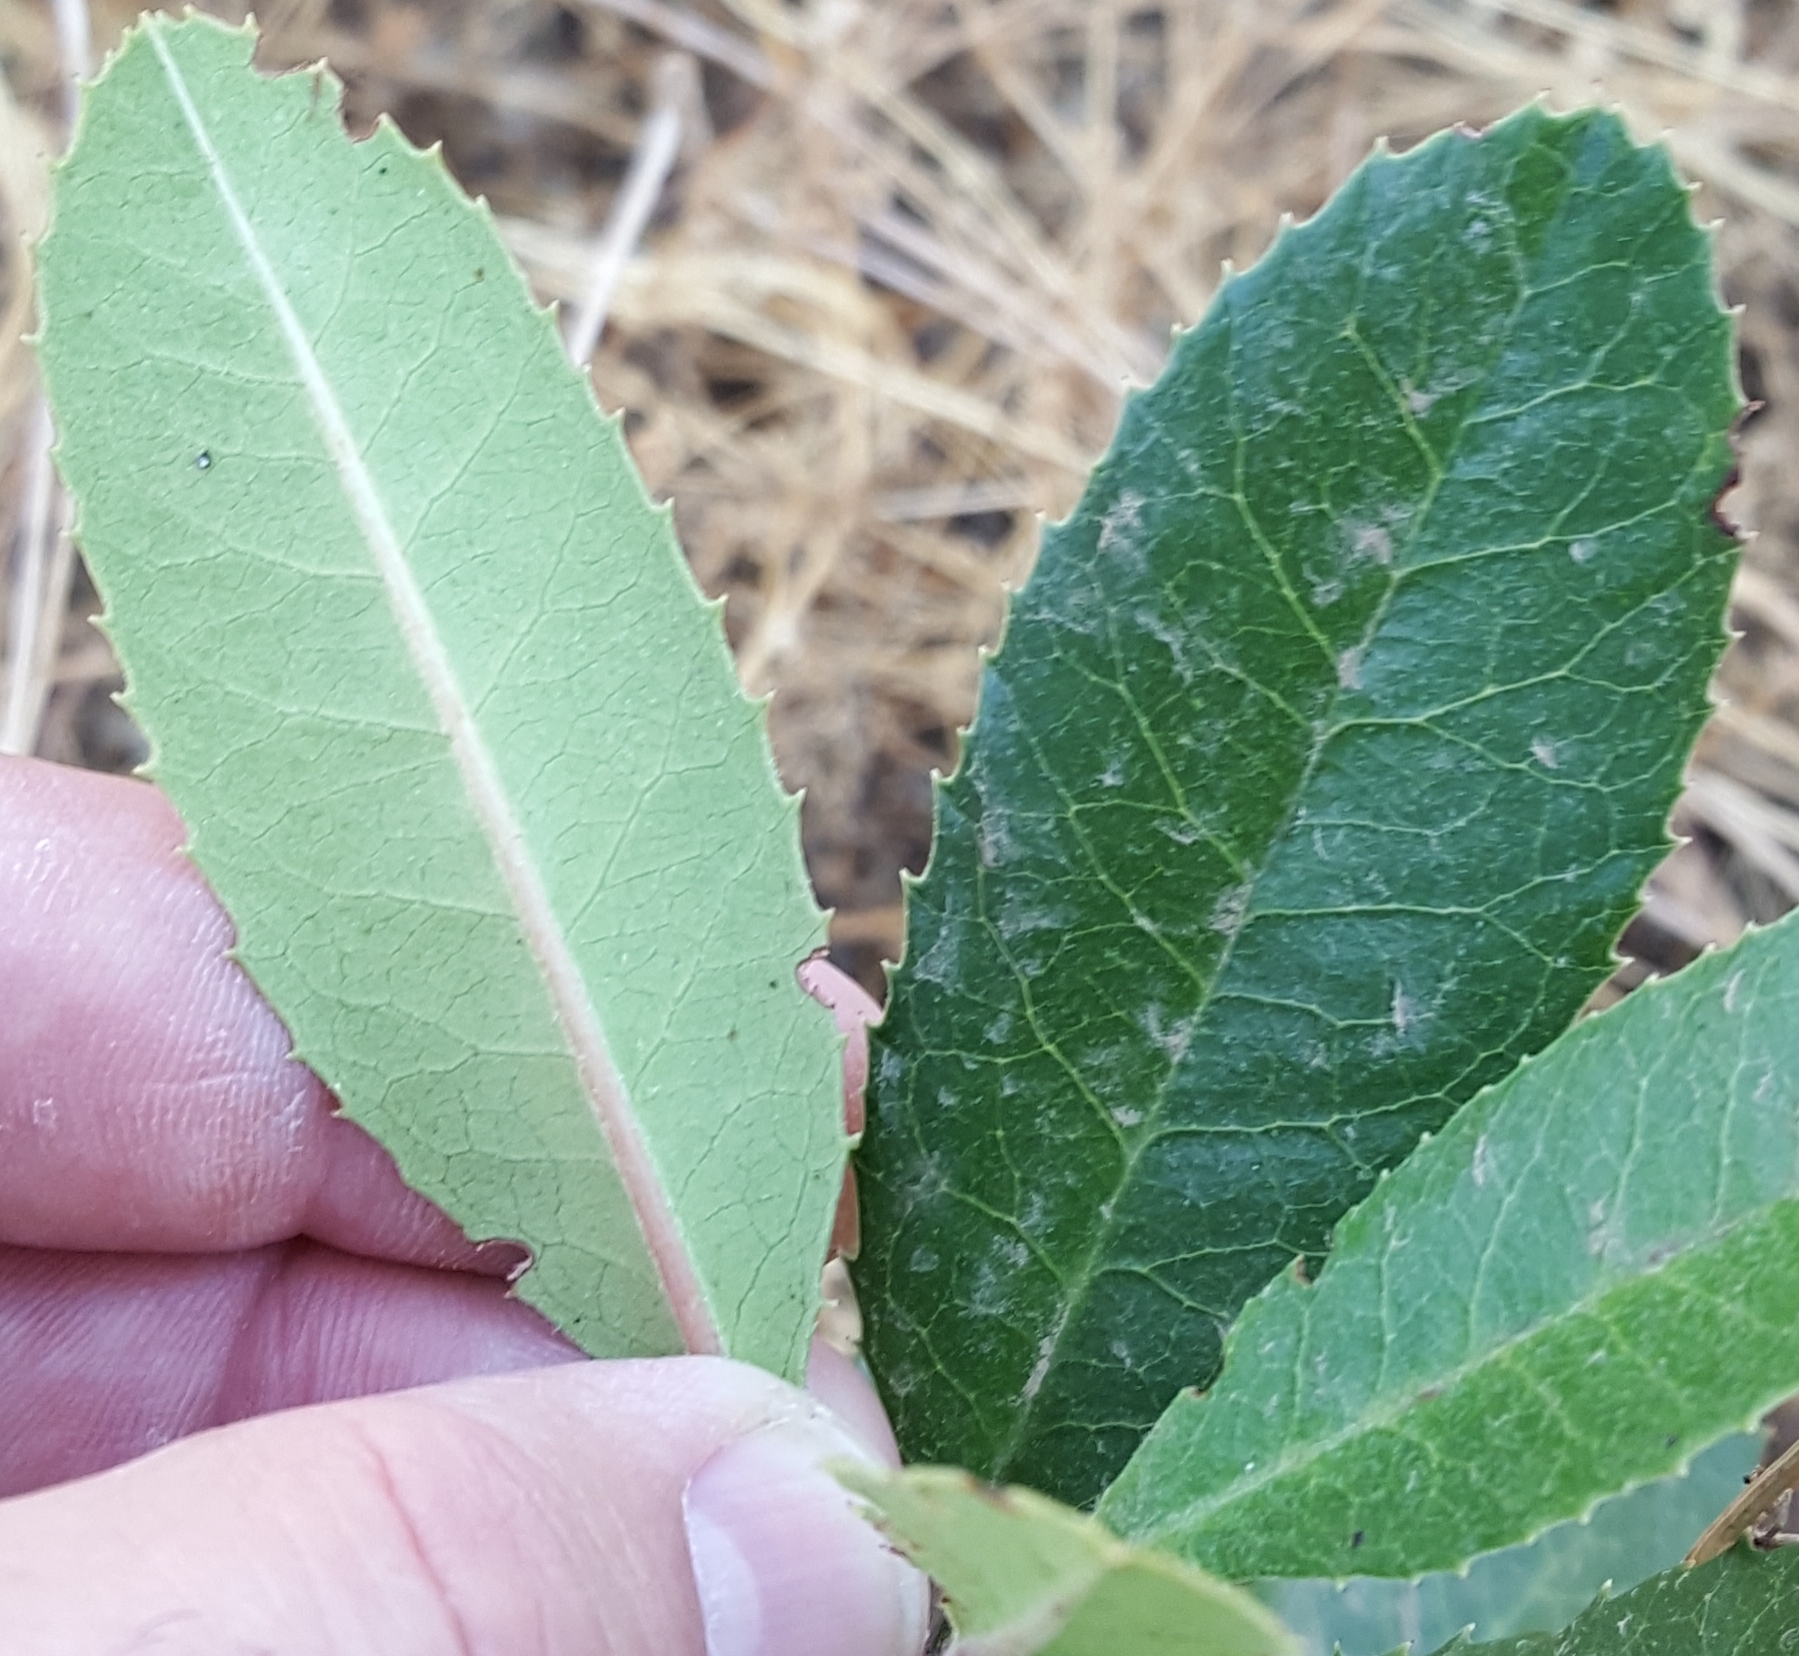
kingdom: Plantae
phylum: Tracheophyta
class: Magnoliopsida
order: Rosales
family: Rosaceae
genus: Heteromeles
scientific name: Heteromeles arbutifolia
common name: California-holly
